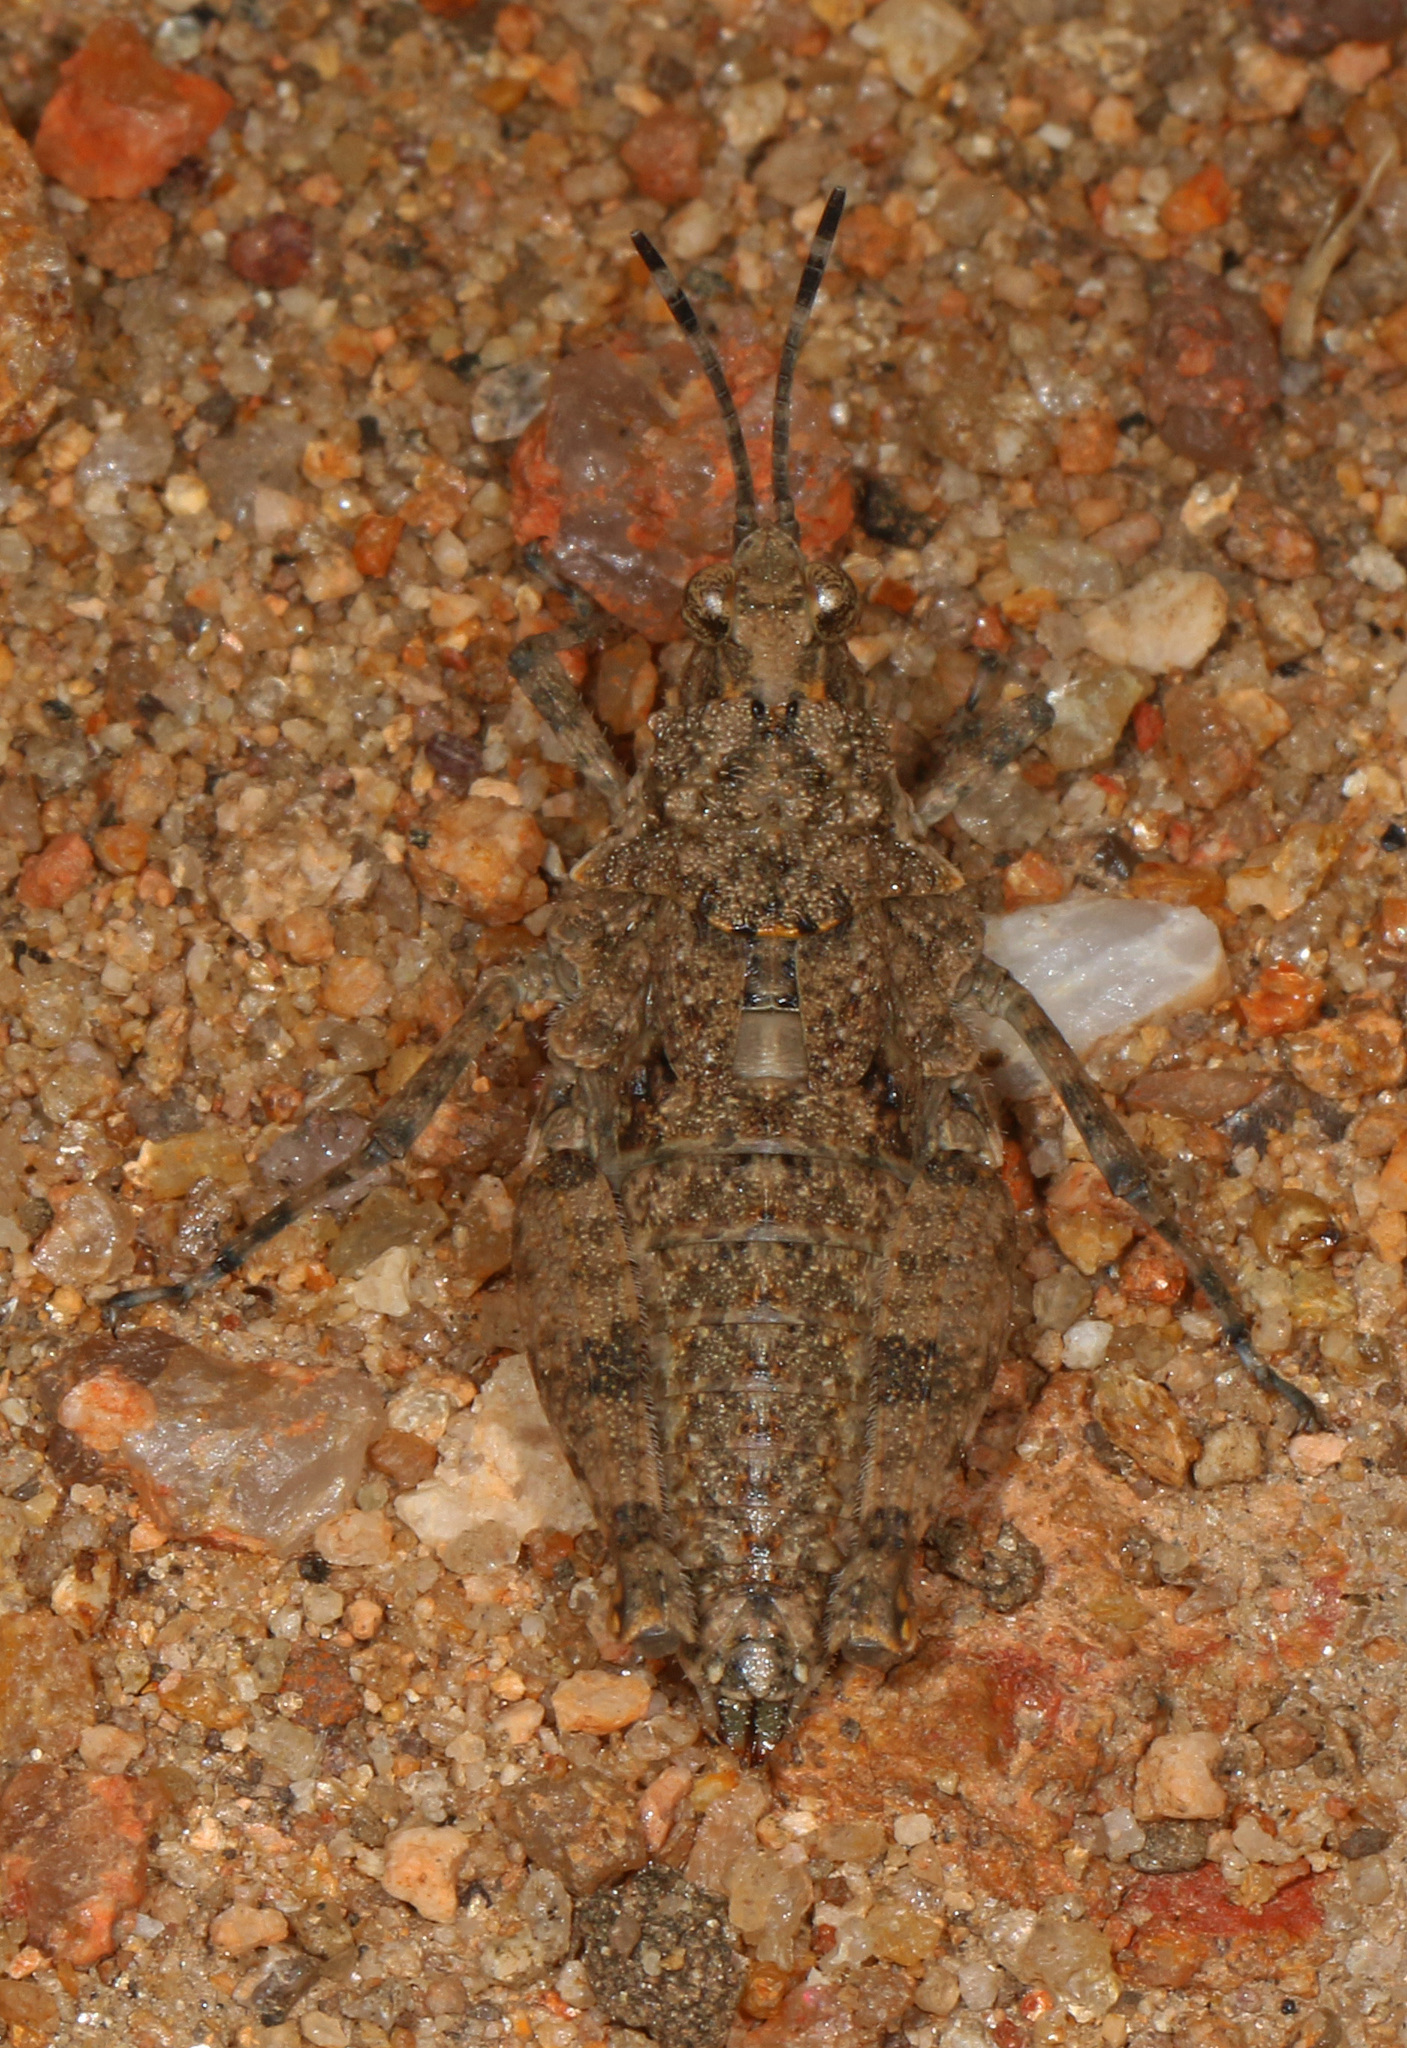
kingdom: Animalia
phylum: Arthropoda
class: Insecta
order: Orthoptera
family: Pyrgomorphidae
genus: Chrotogonus
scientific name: Chrotogonus hemipterus
